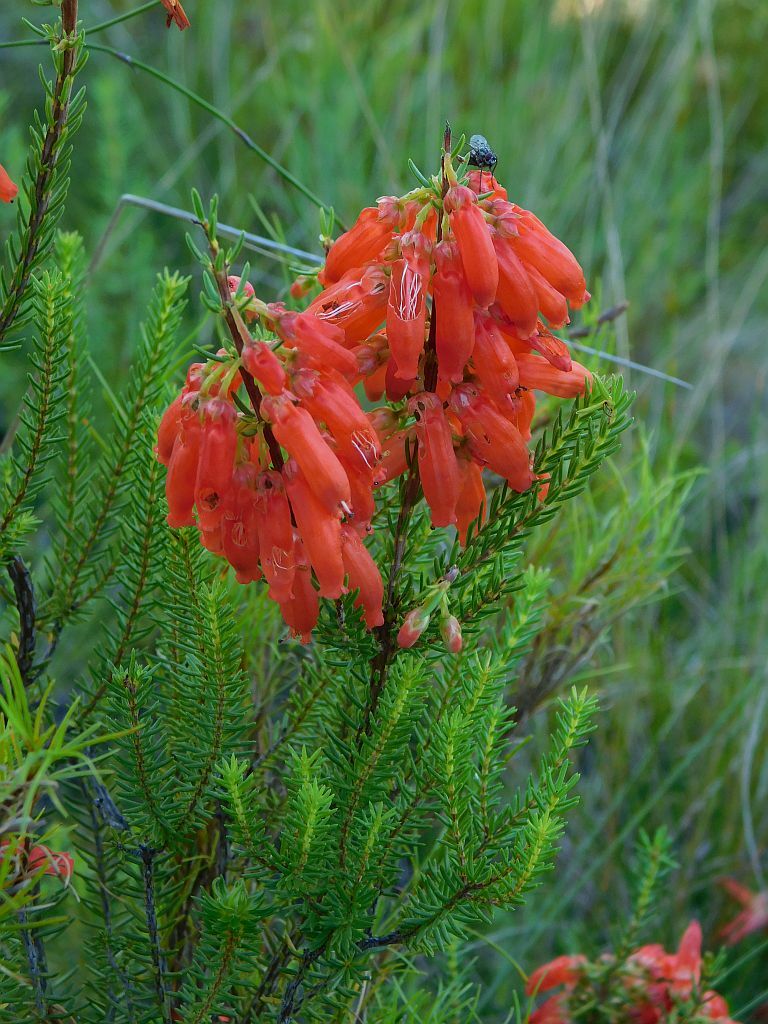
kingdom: Plantae
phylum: Tracheophyta
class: Magnoliopsida
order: Ericales
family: Ericaceae
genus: Erica
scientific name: Erica mammosa
